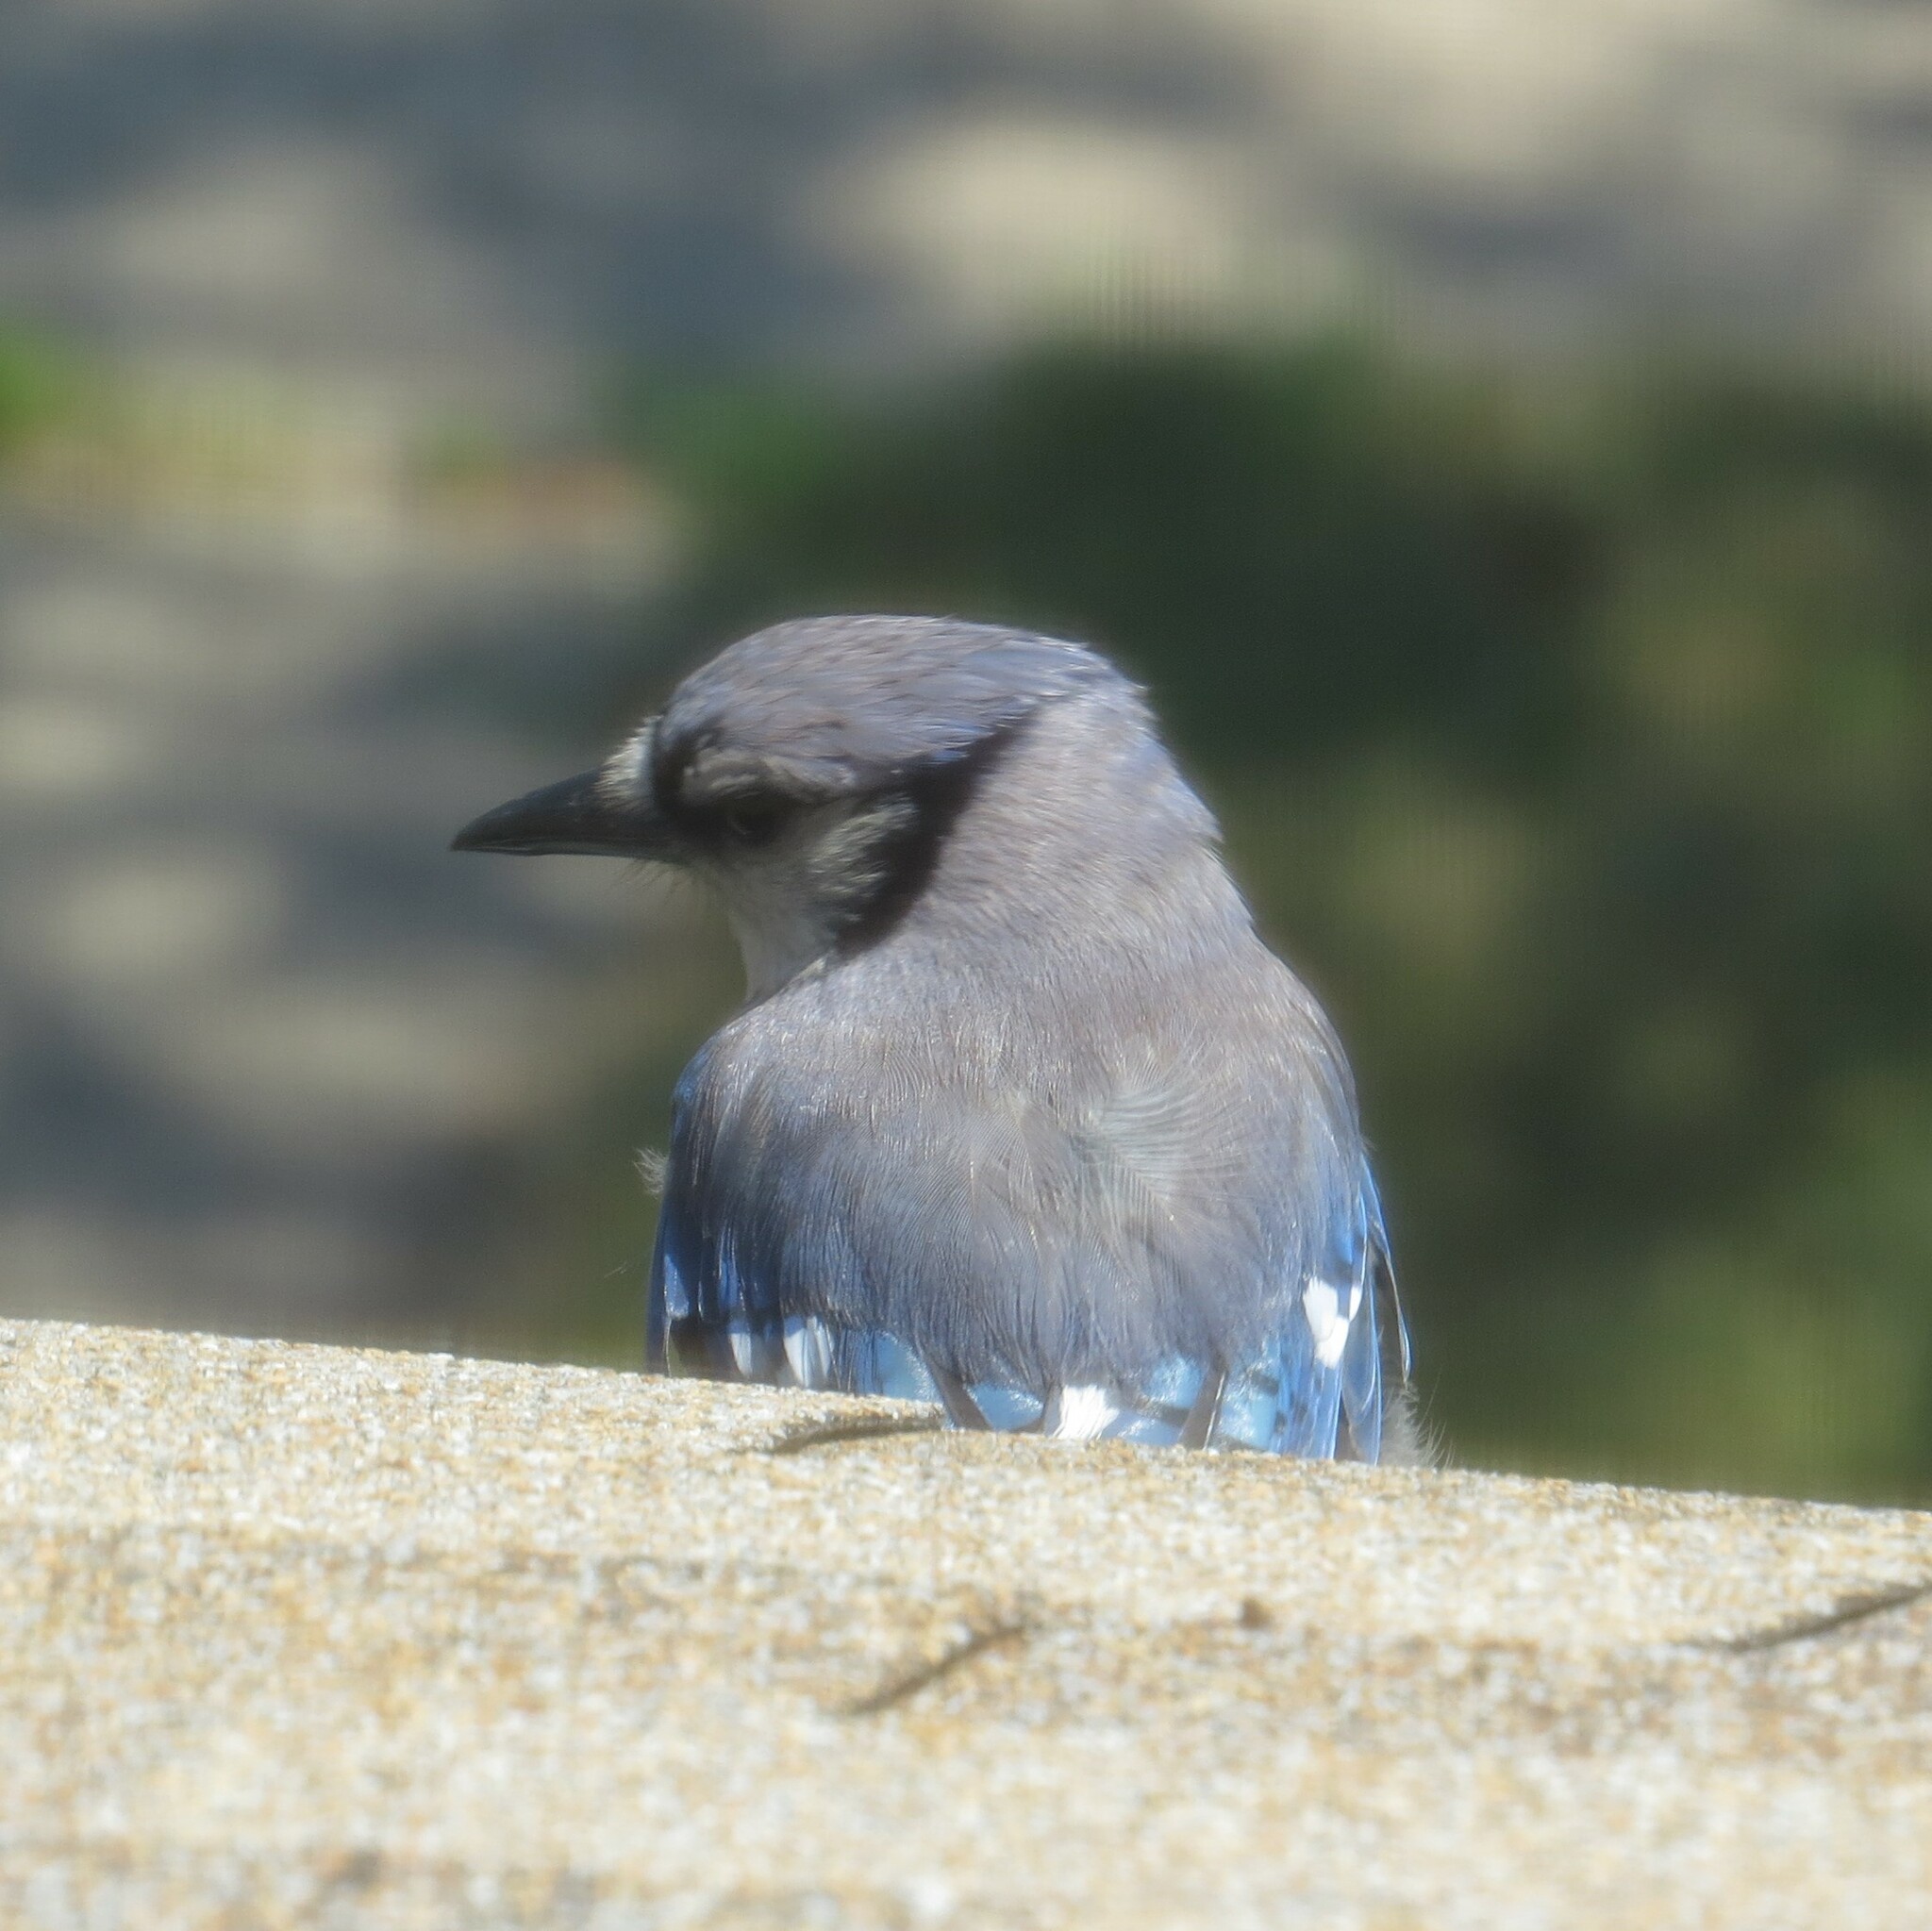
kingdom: Animalia
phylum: Chordata
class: Aves
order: Passeriformes
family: Corvidae
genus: Cyanocitta
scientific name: Cyanocitta cristata
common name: Blue jay
